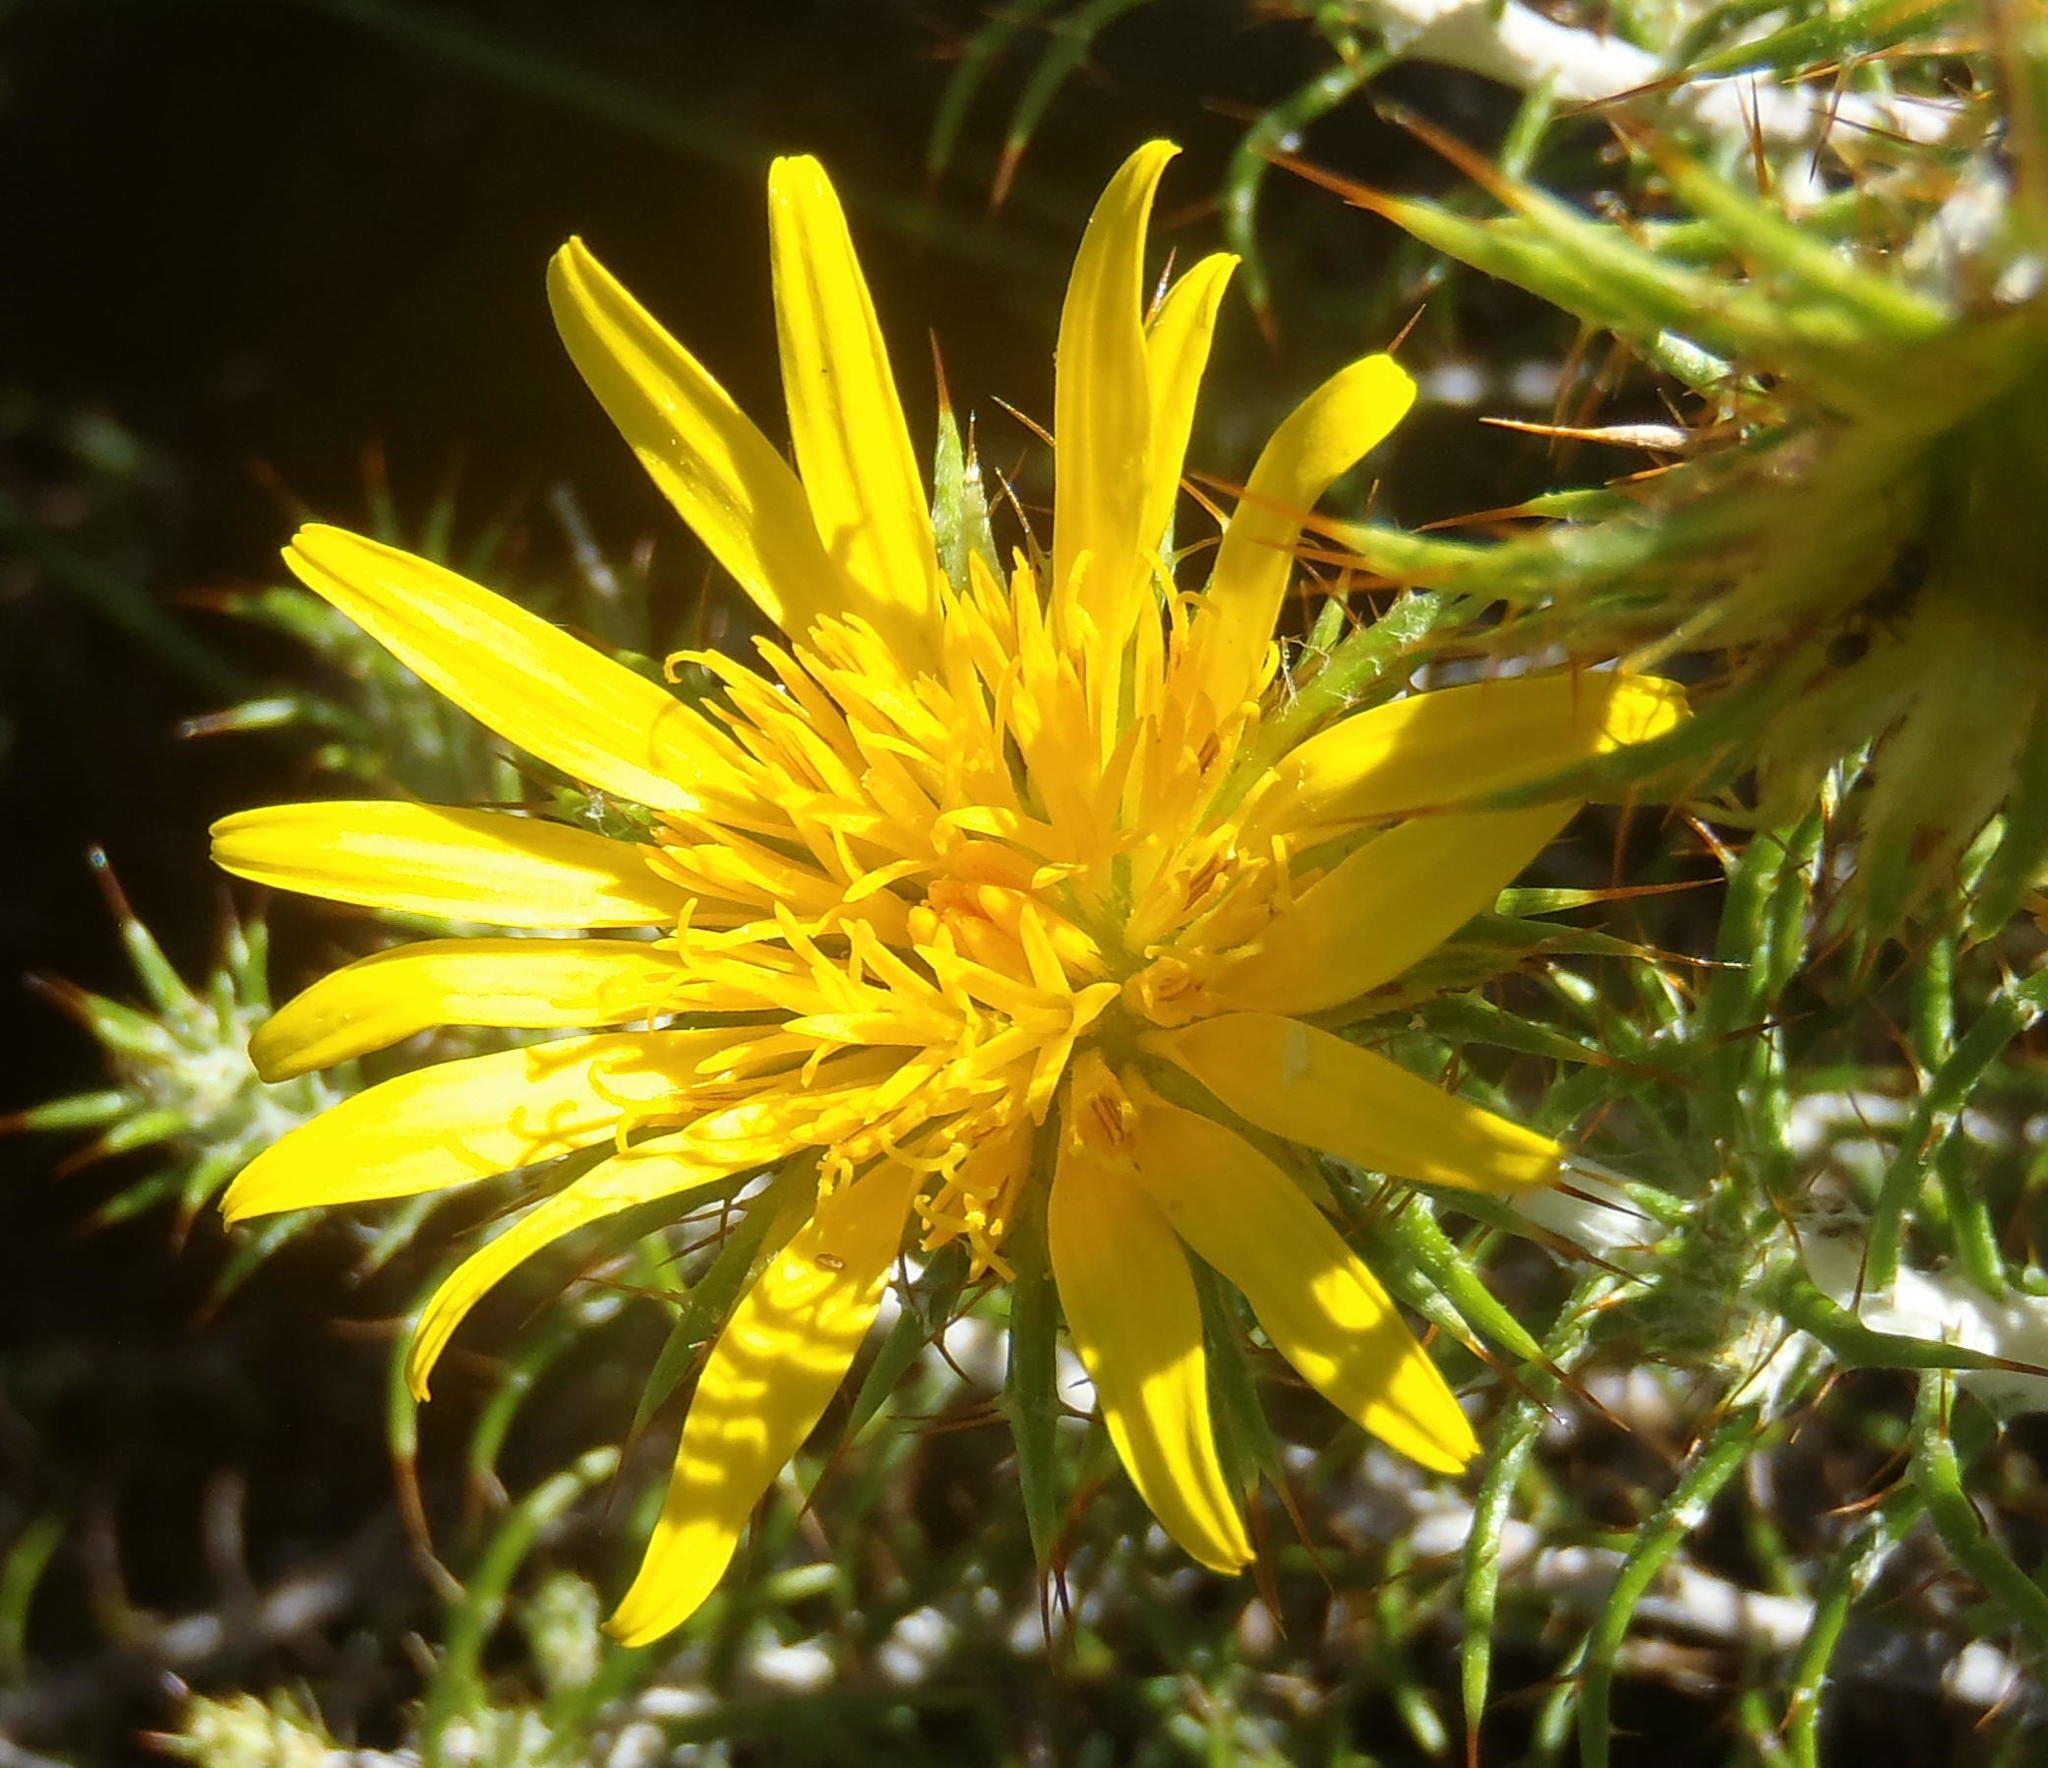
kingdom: Plantae
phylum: Tracheophyta
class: Magnoliopsida
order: Asterales
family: Asteraceae
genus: Cullumia
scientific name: Cullumia patula
